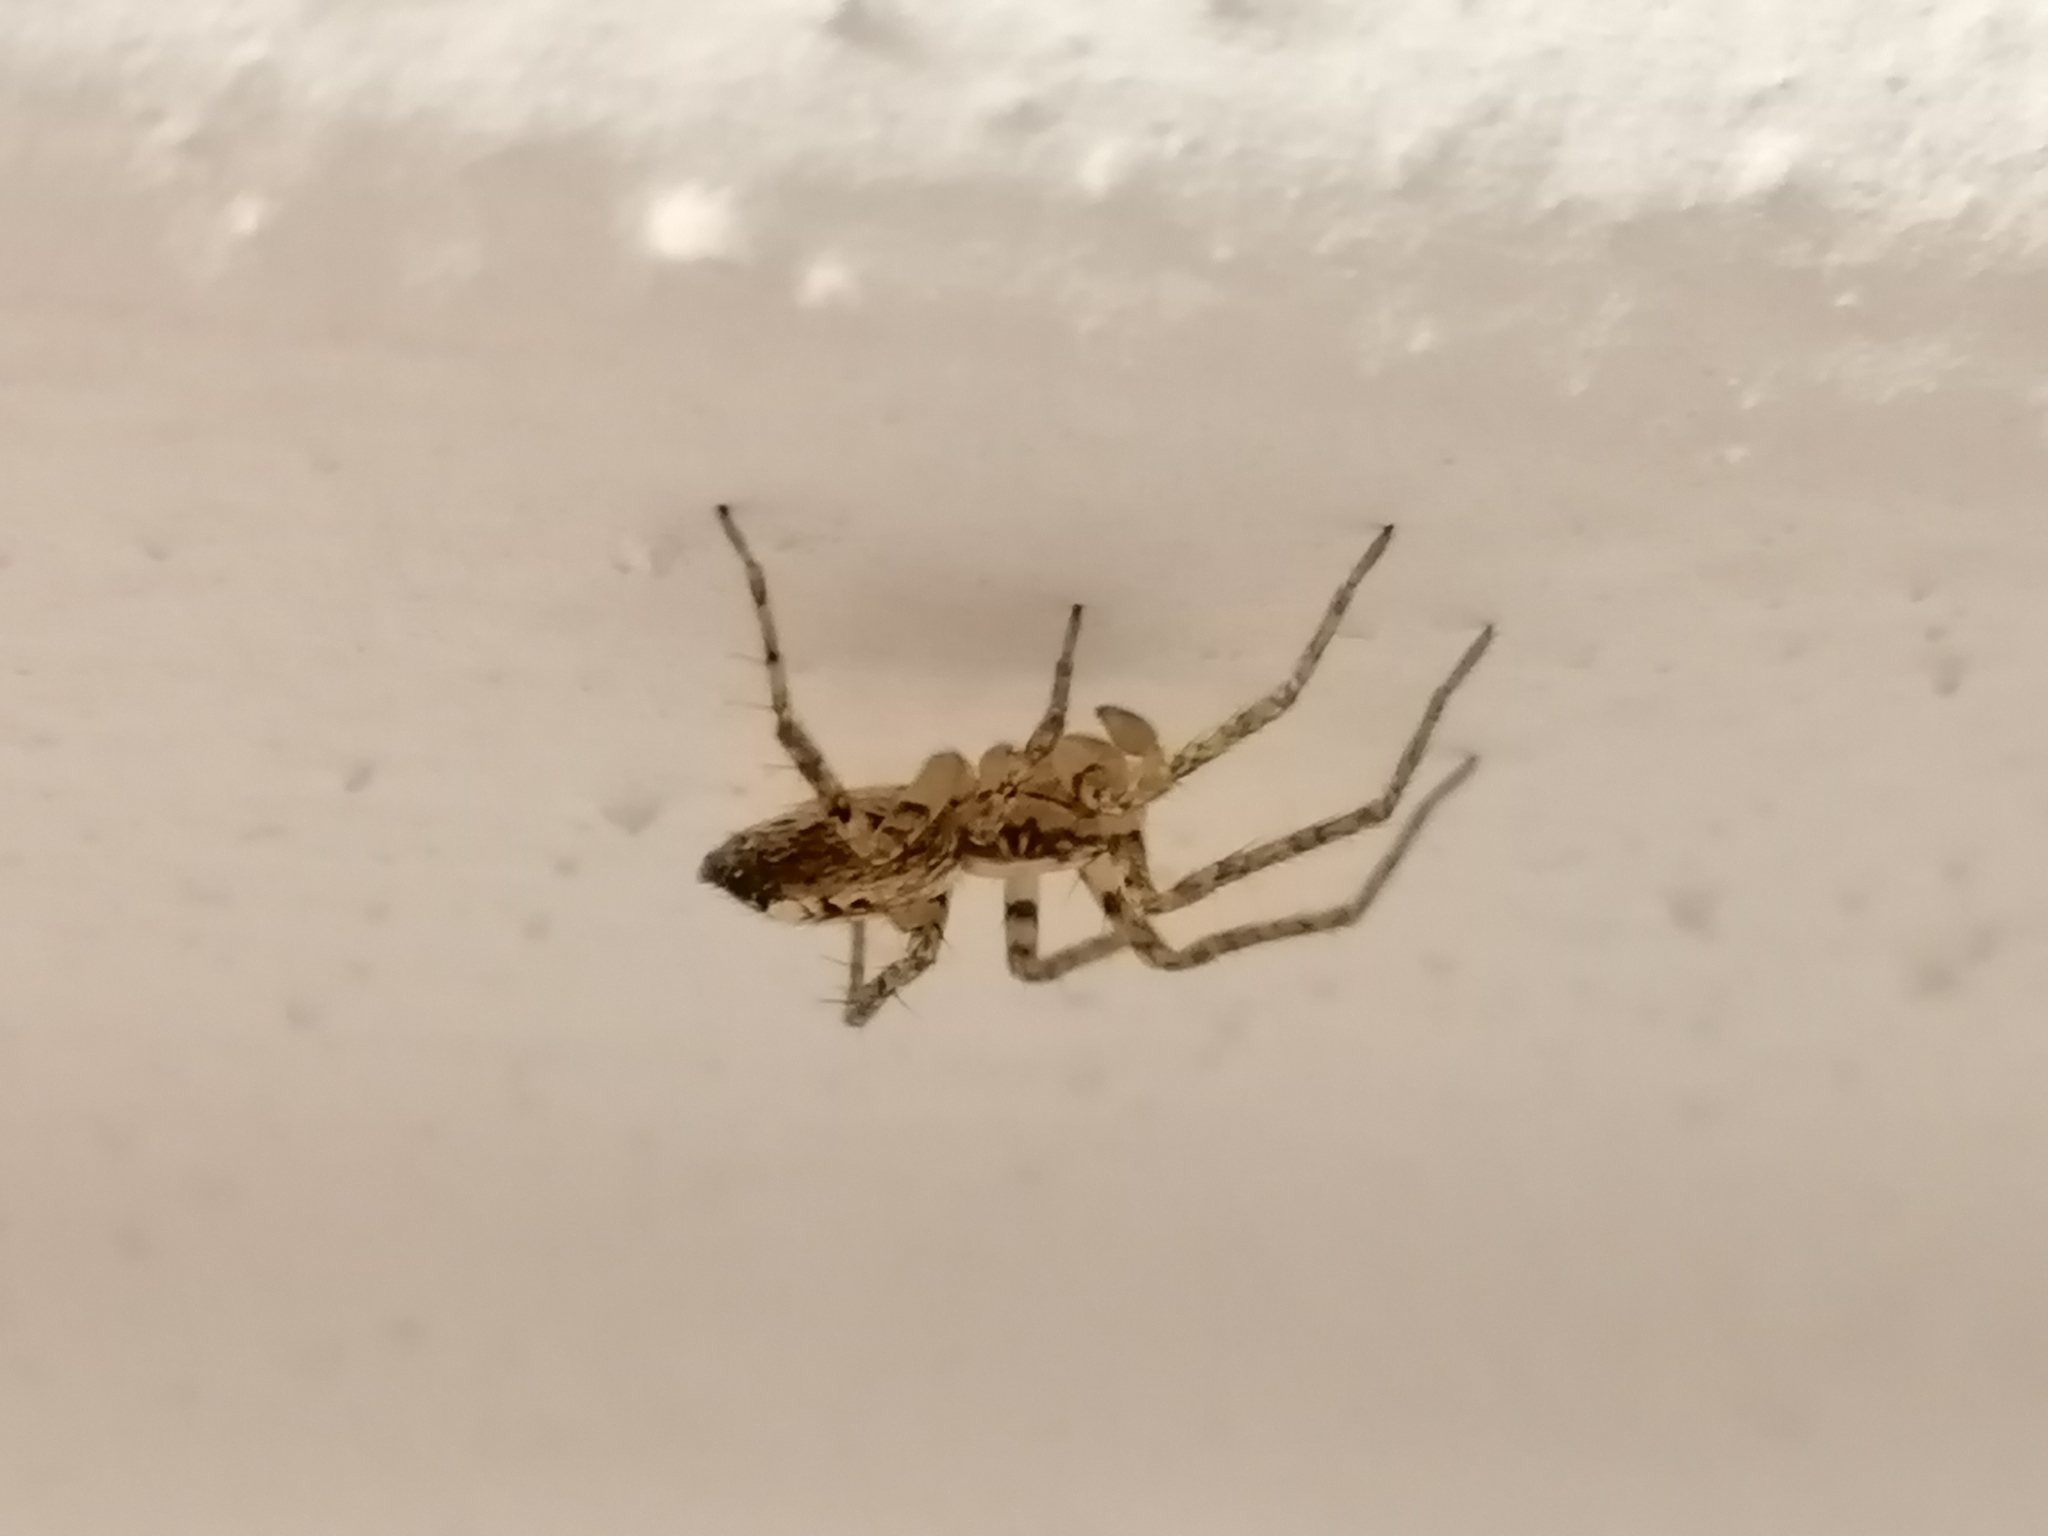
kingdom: Animalia
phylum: Arthropoda
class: Arachnida
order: Araneae
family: Anyphaenidae
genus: Anyphaena
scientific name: Anyphaena accentuata
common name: Buzzing spider
